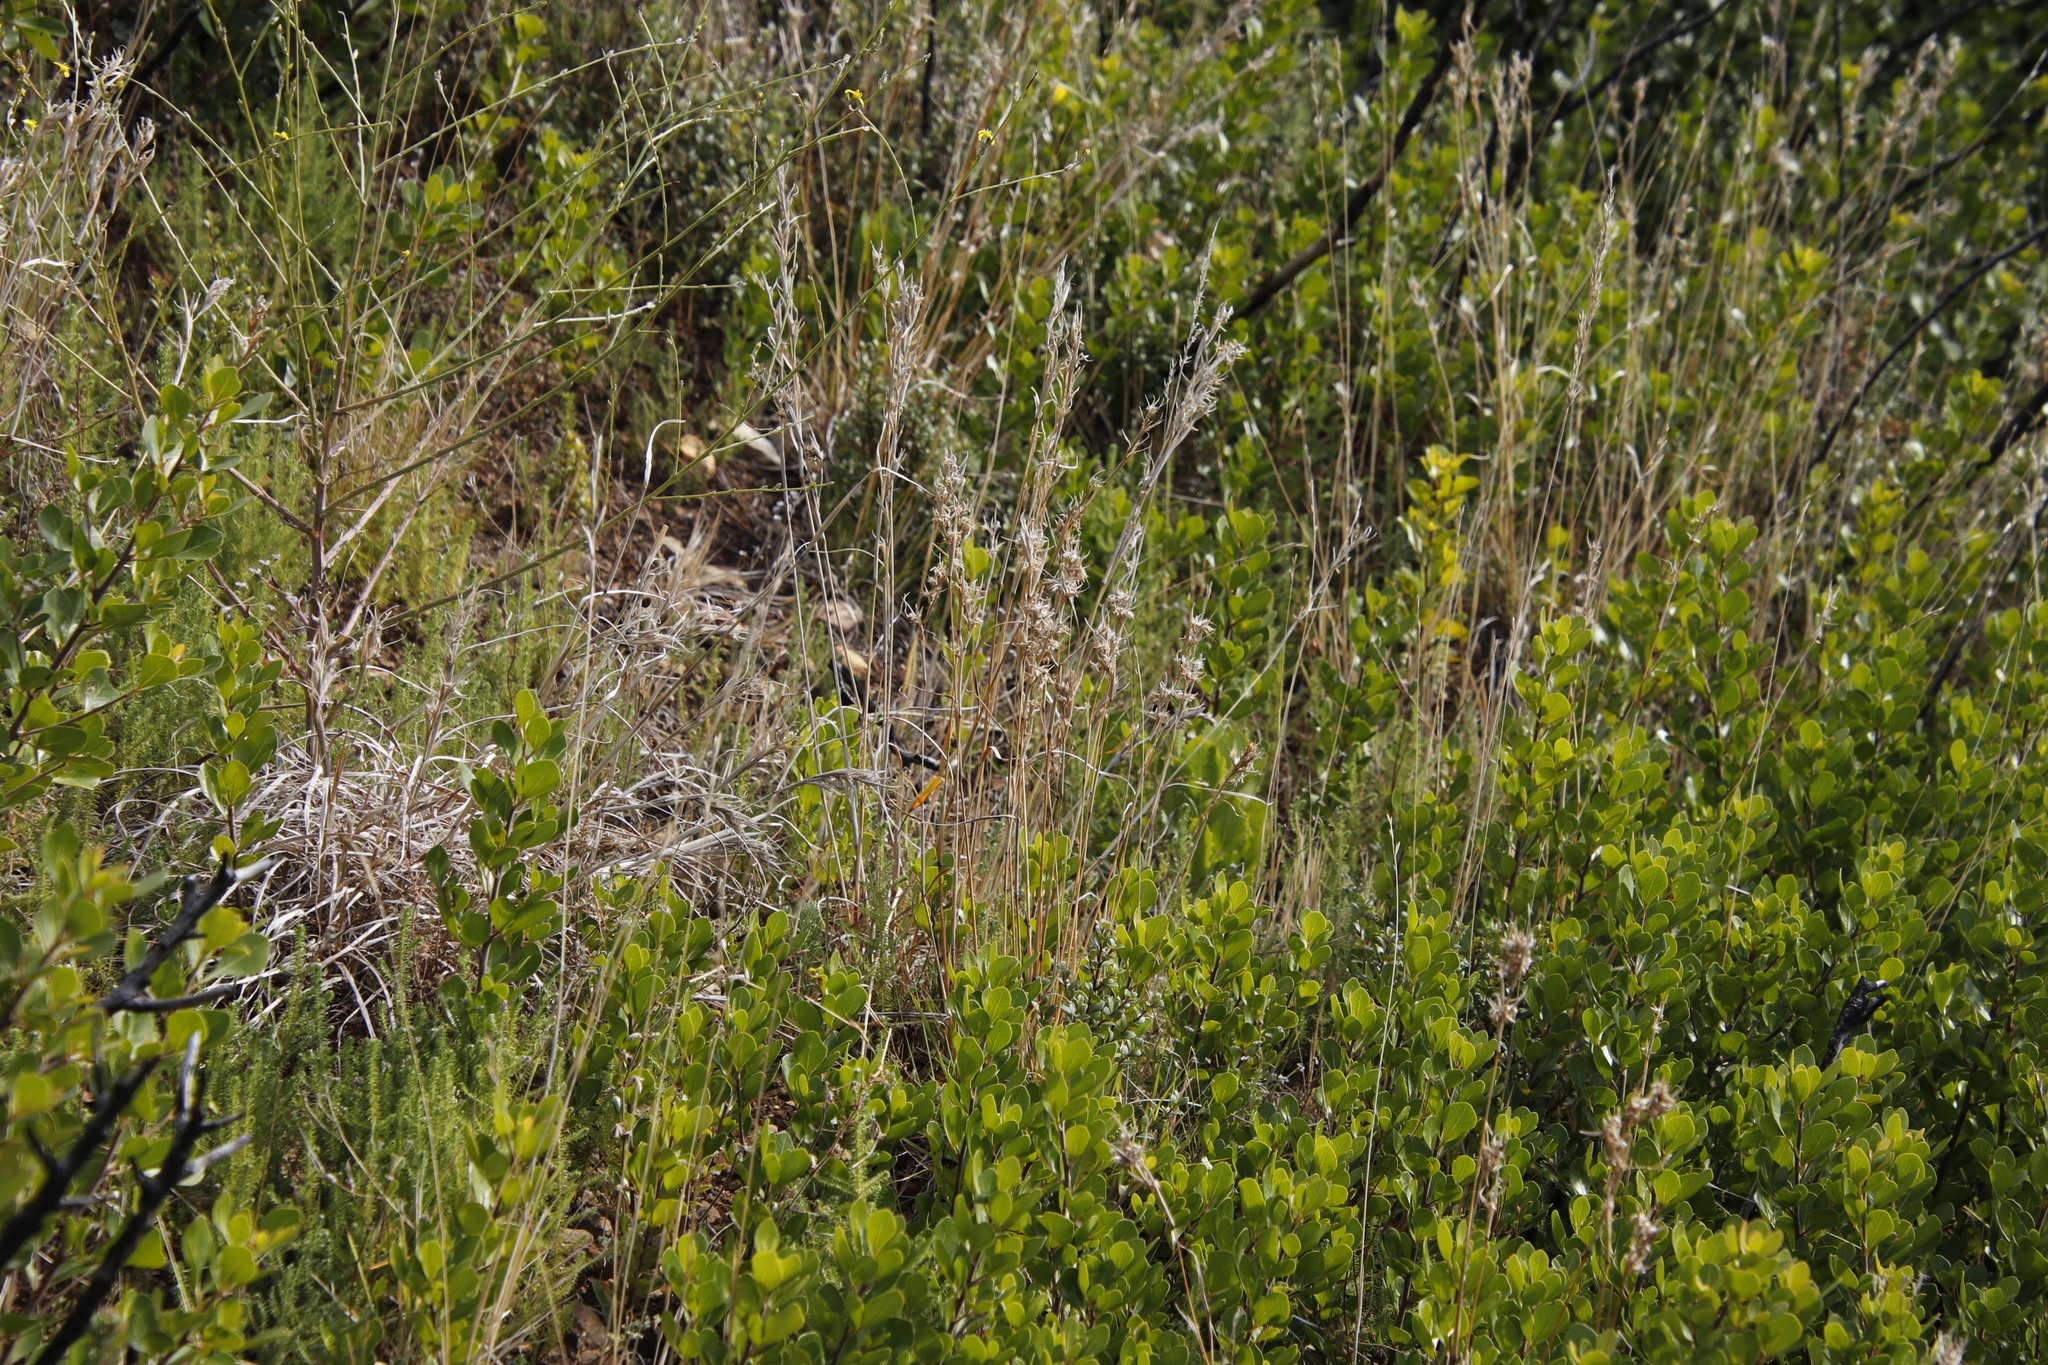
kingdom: Plantae
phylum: Tracheophyta
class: Magnoliopsida
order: Sapindales
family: Anacardiaceae
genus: Searsia
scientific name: Searsia lucida
